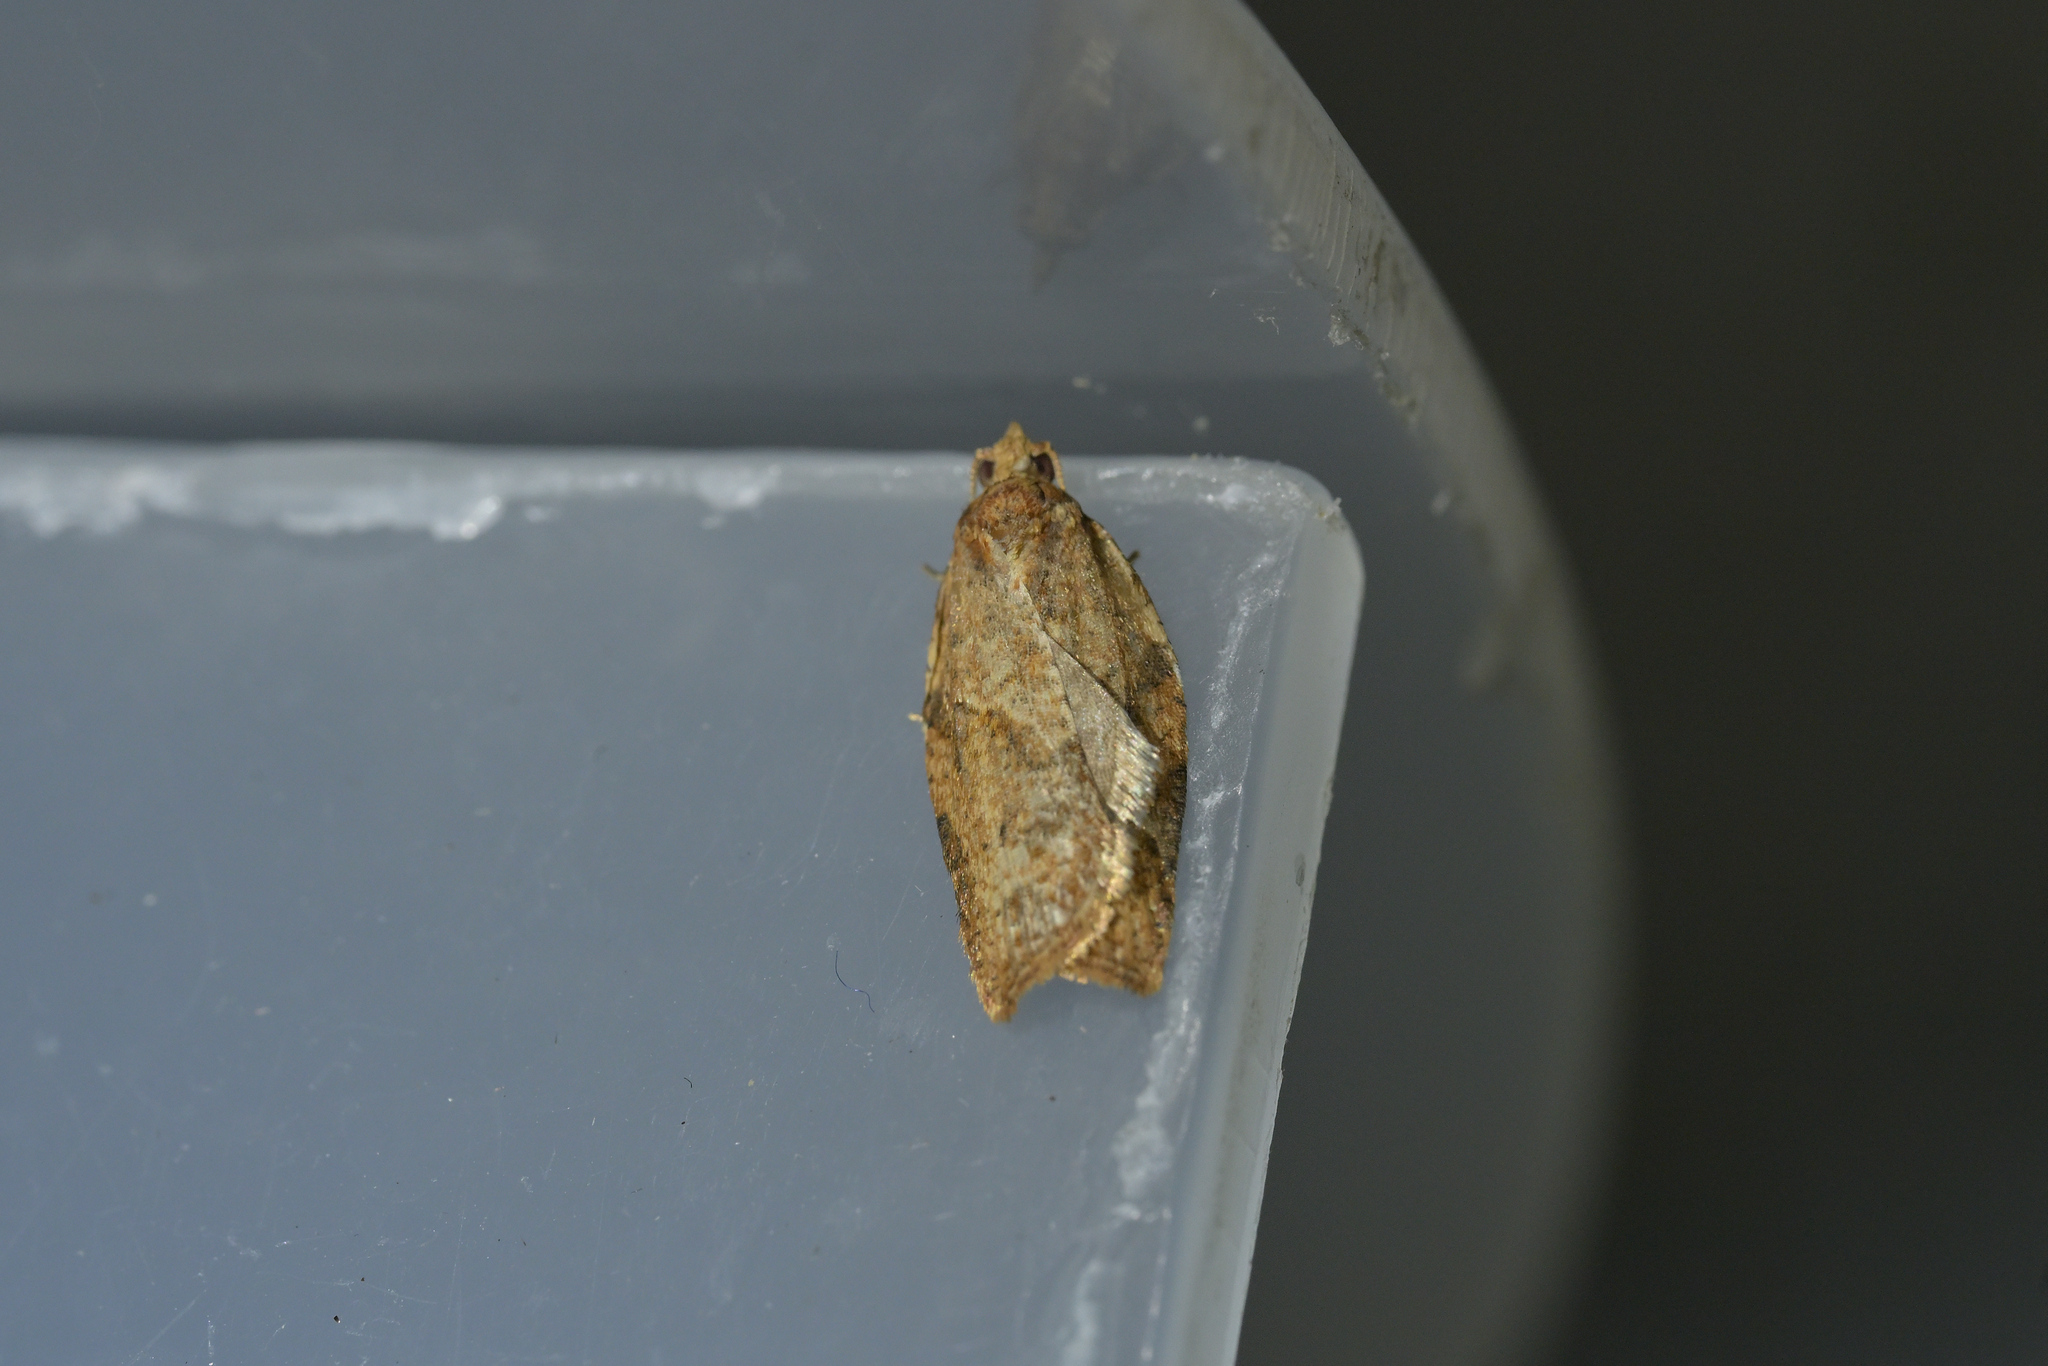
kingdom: Animalia
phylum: Arthropoda
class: Insecta
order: Lepidoptera
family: Tortricidae
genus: Epiphyas
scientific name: Epiphyas postvittana
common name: Light brown apple moth
